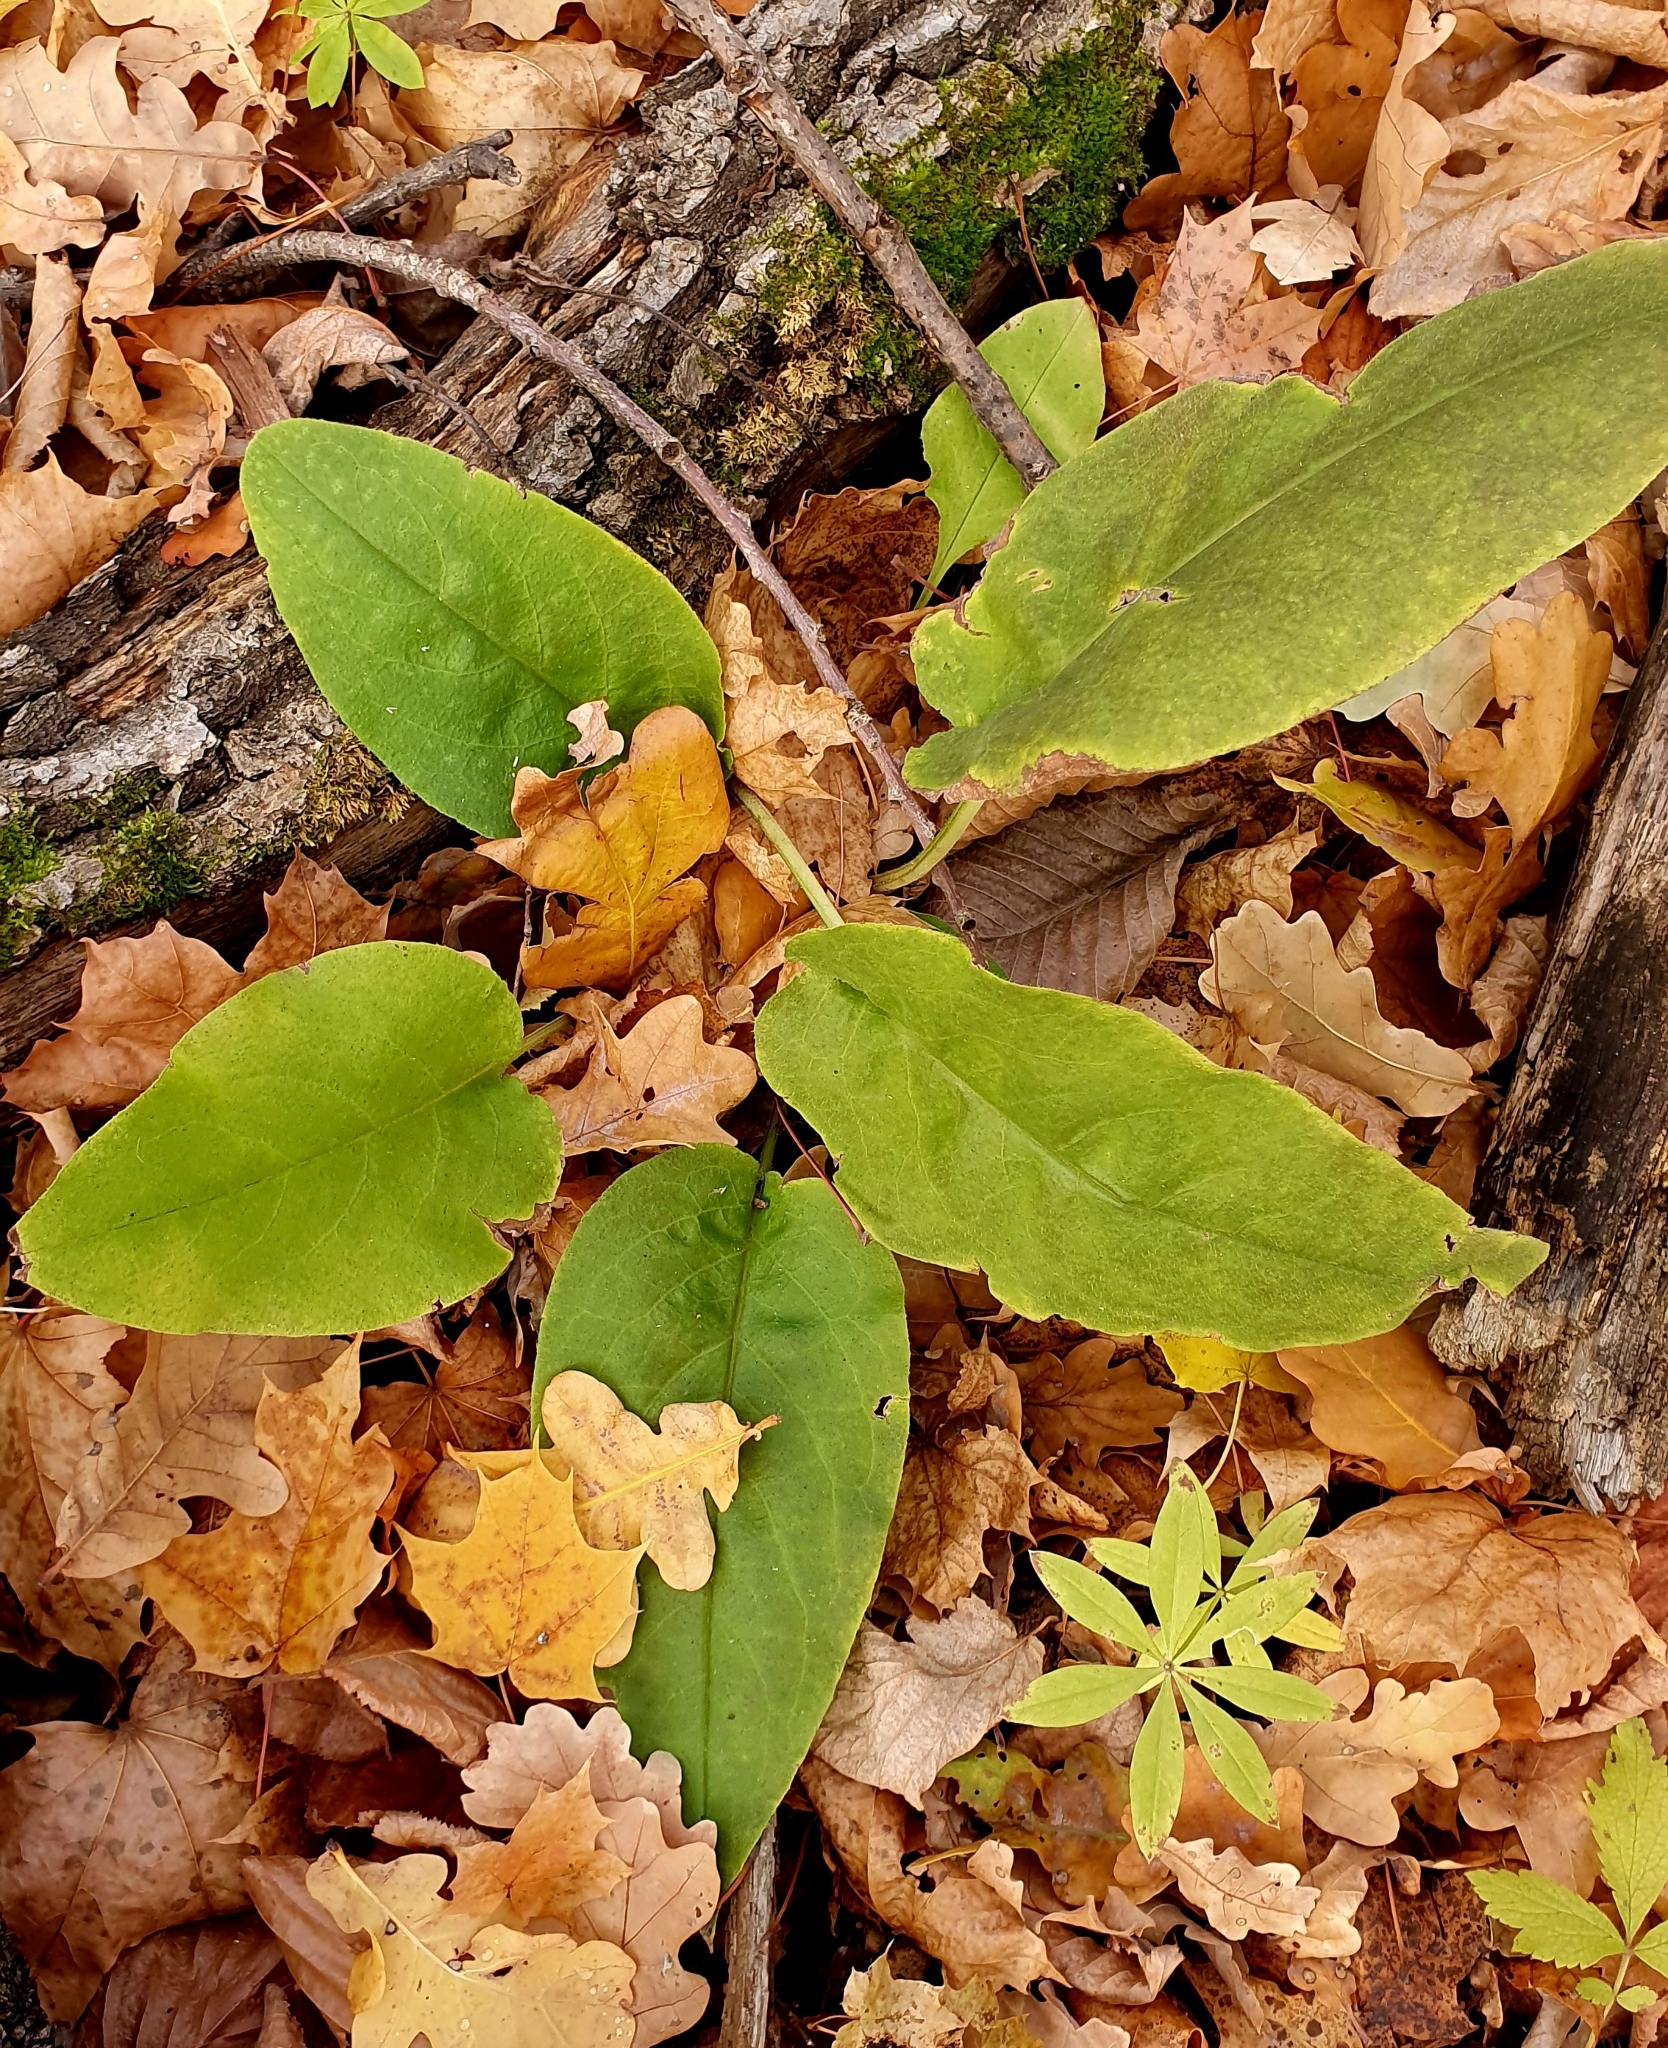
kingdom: Plantae
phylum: Tracheophyta
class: Magnoliopsida
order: Boraginales
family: Boraginaceae
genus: Pulmonaria
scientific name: Pulmonaria obscura
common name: Suffolk lungwort
